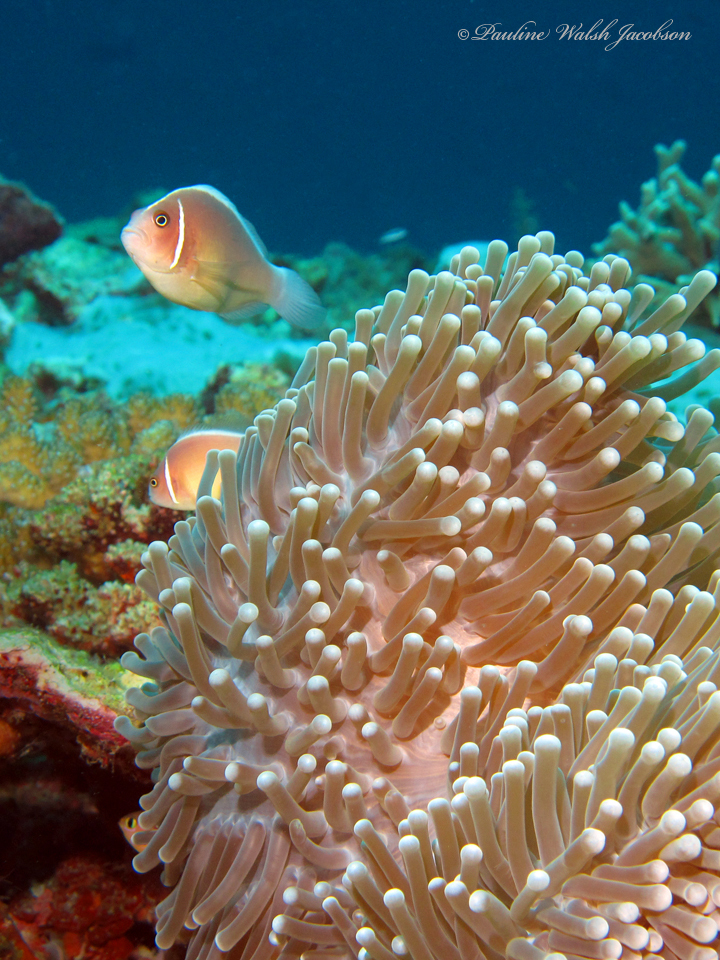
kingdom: Animalia
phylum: Chordata
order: Perciformes
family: Pomacentridae
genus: Amphiprion
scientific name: Amphiprion perideraion
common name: Pink anemonefish
